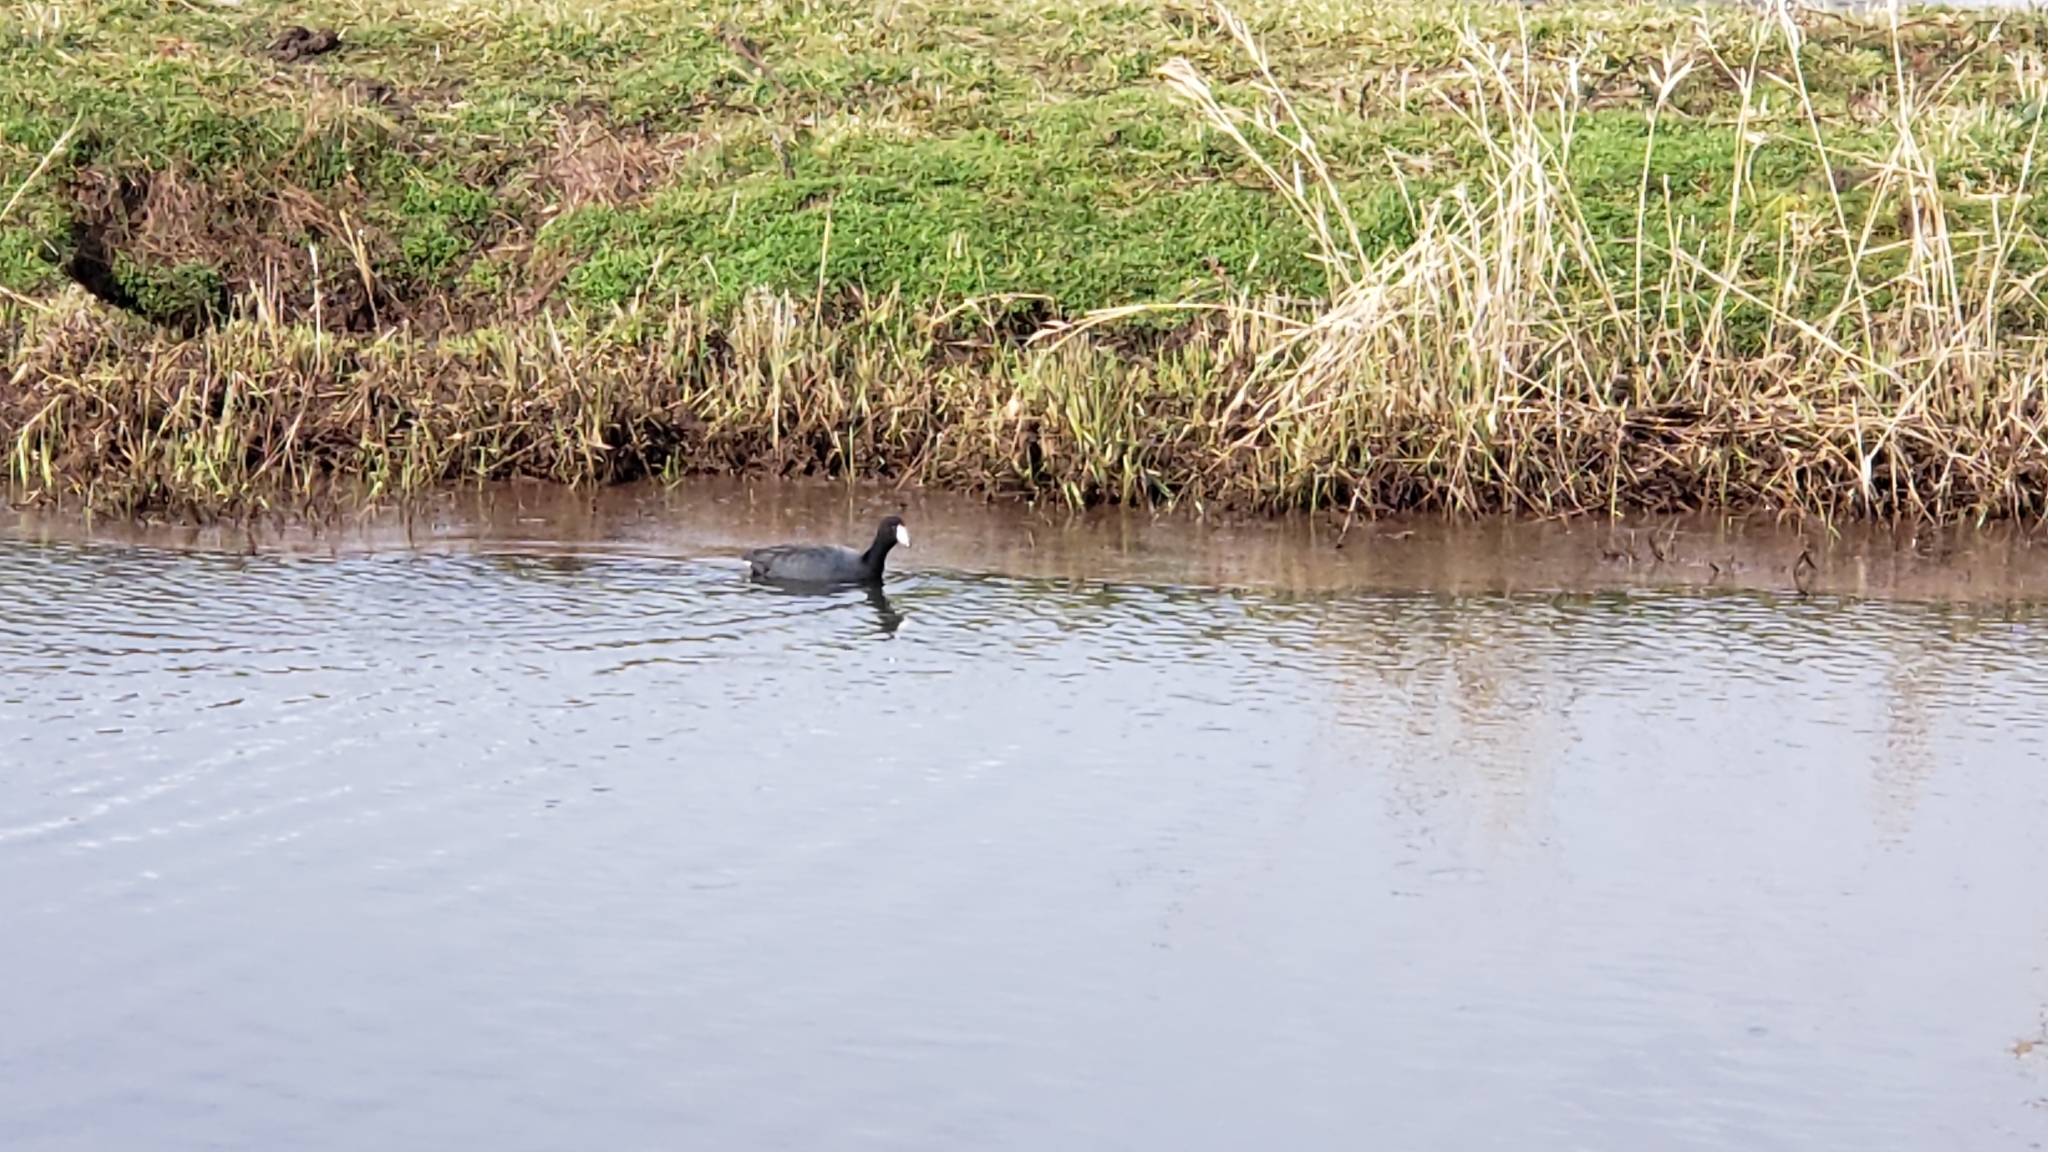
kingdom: Animalia
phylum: Chordata
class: Aves
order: Gruiformes
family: Rallidae
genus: Fulica
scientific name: Fulica americana
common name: American coot
